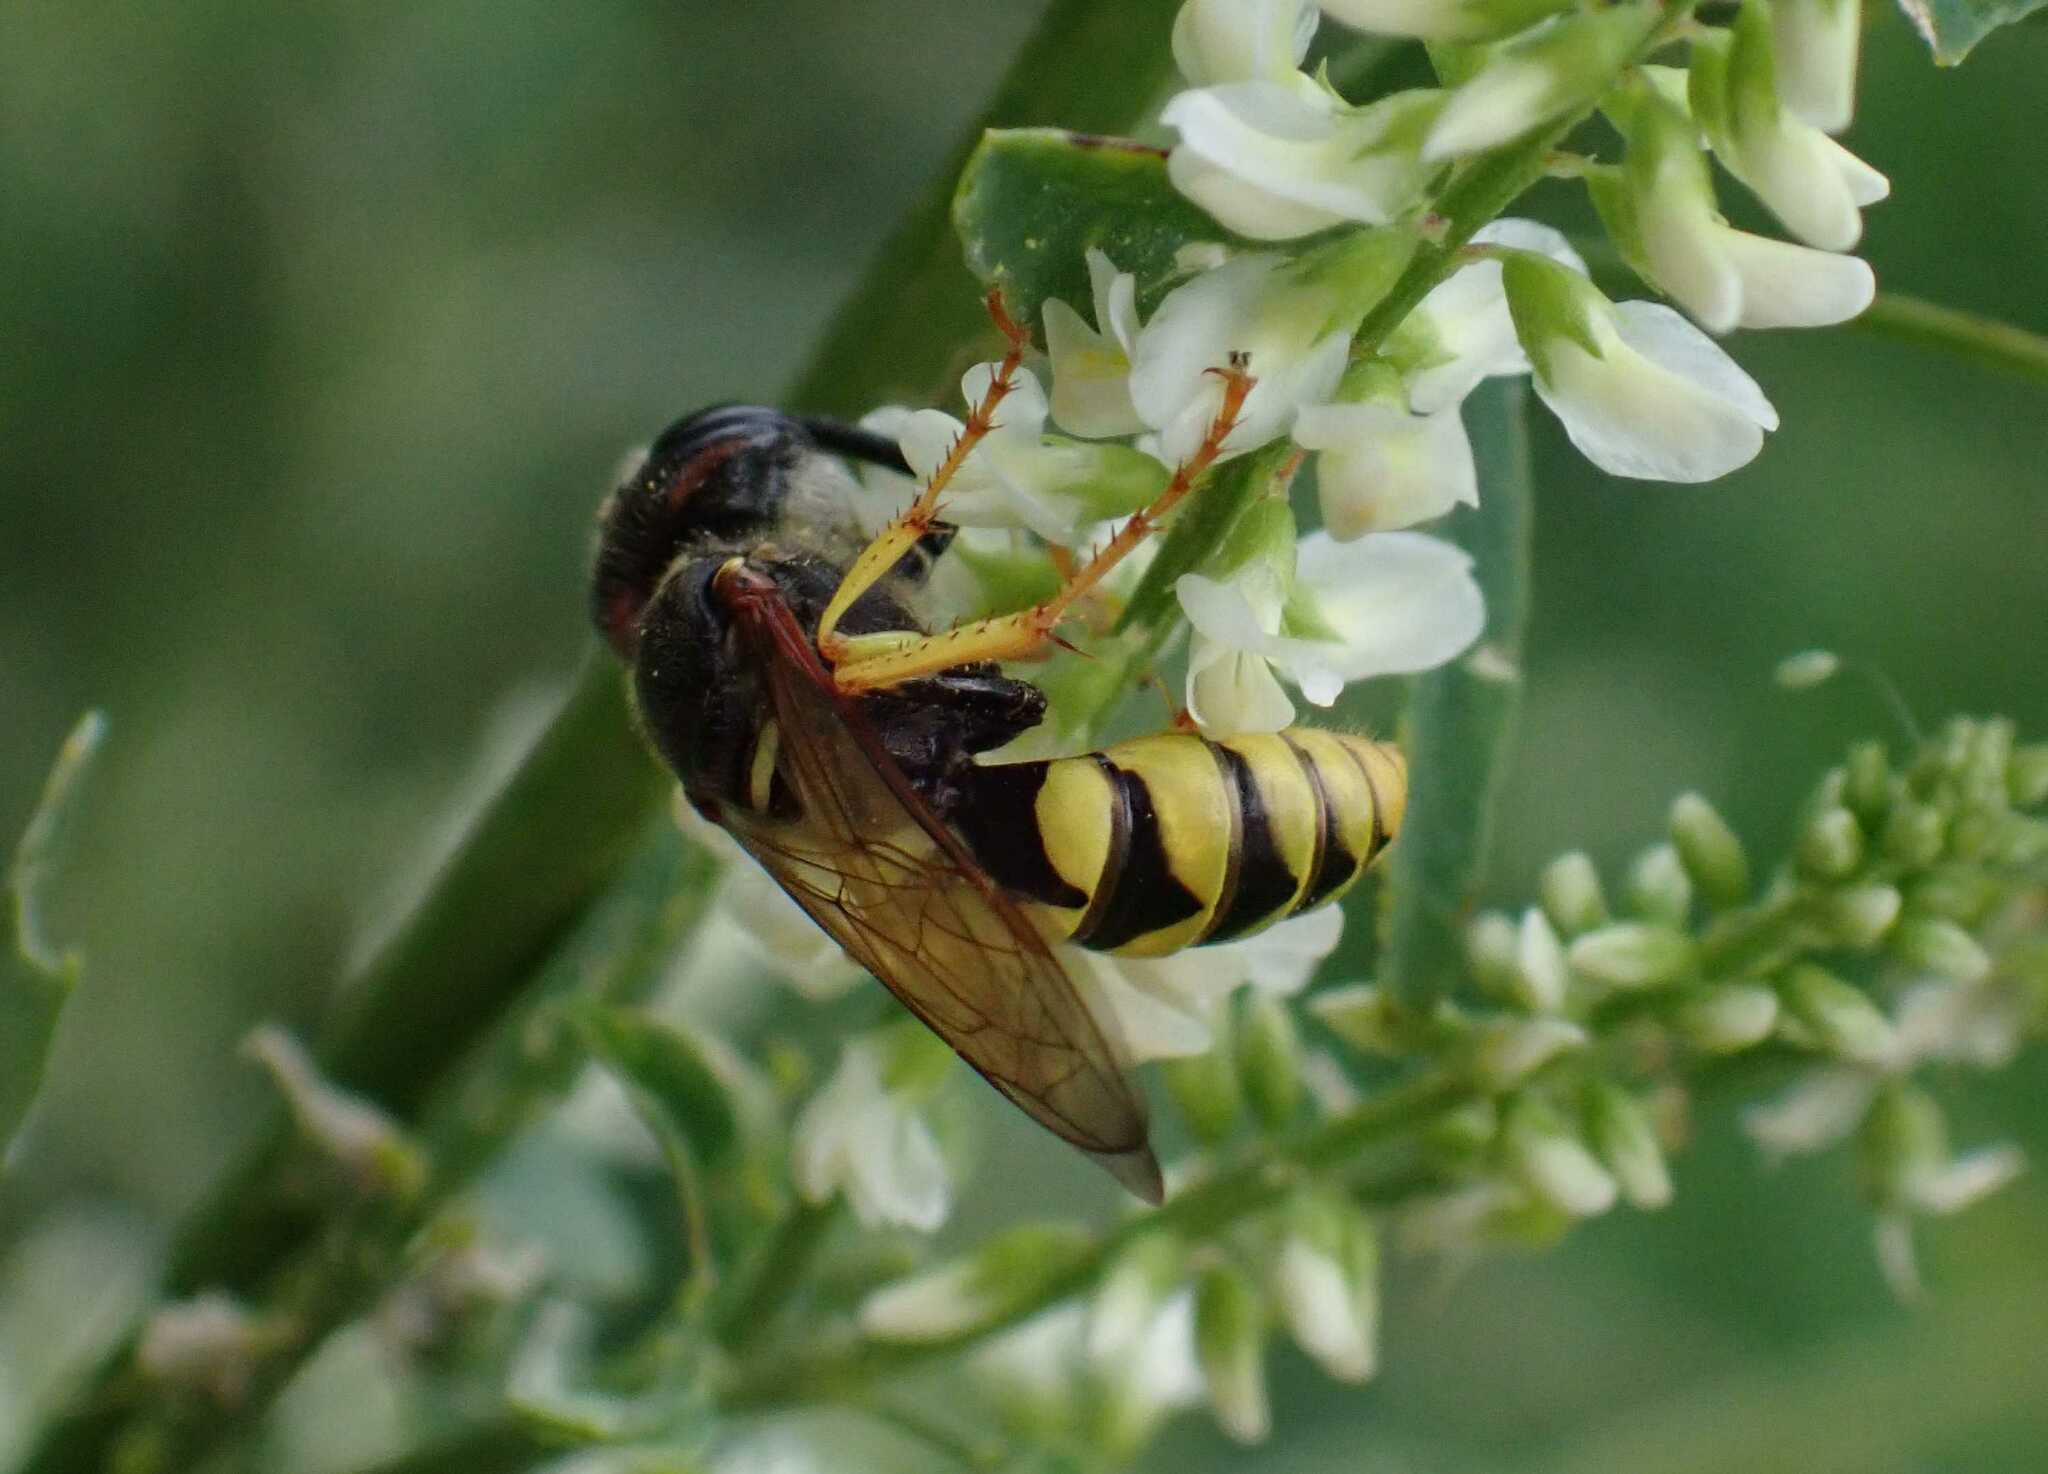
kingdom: Animalia
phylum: Arthropoda
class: Insecta
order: Hymenoptera
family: Crabronidae
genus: Philanthus
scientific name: Philanthus triangulum
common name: Bee wolf
